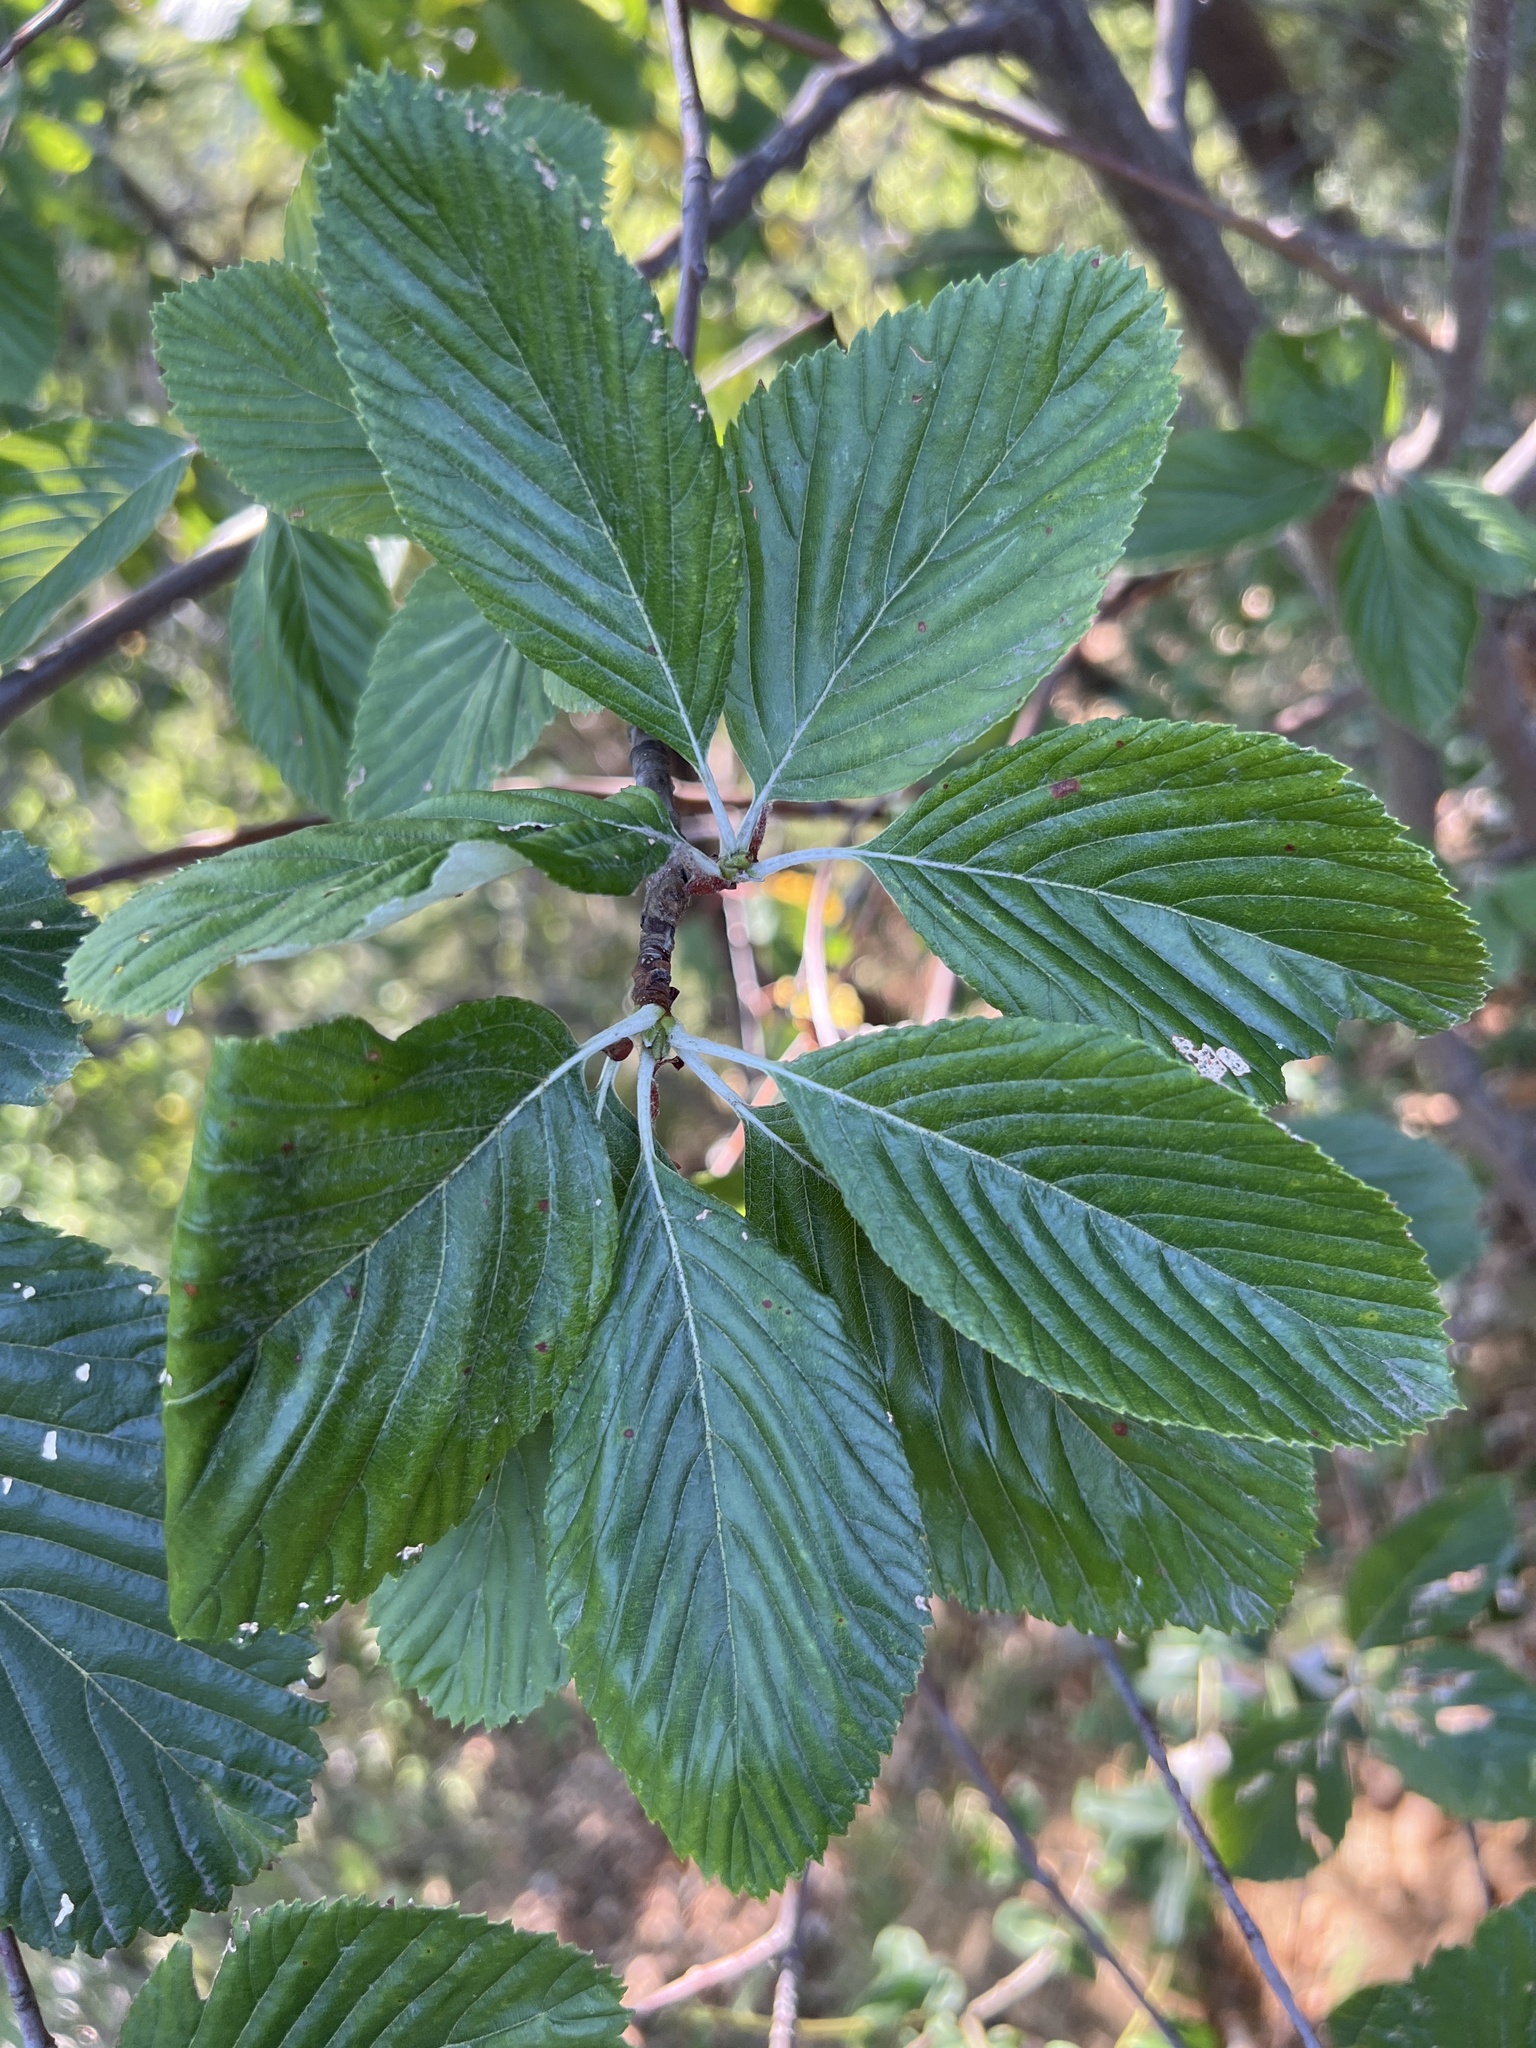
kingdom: Plantae
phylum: Tracheophyta
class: Magnoliopsida
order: Rosales
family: Rosaceae
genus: Aria
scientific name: Aria edulis
